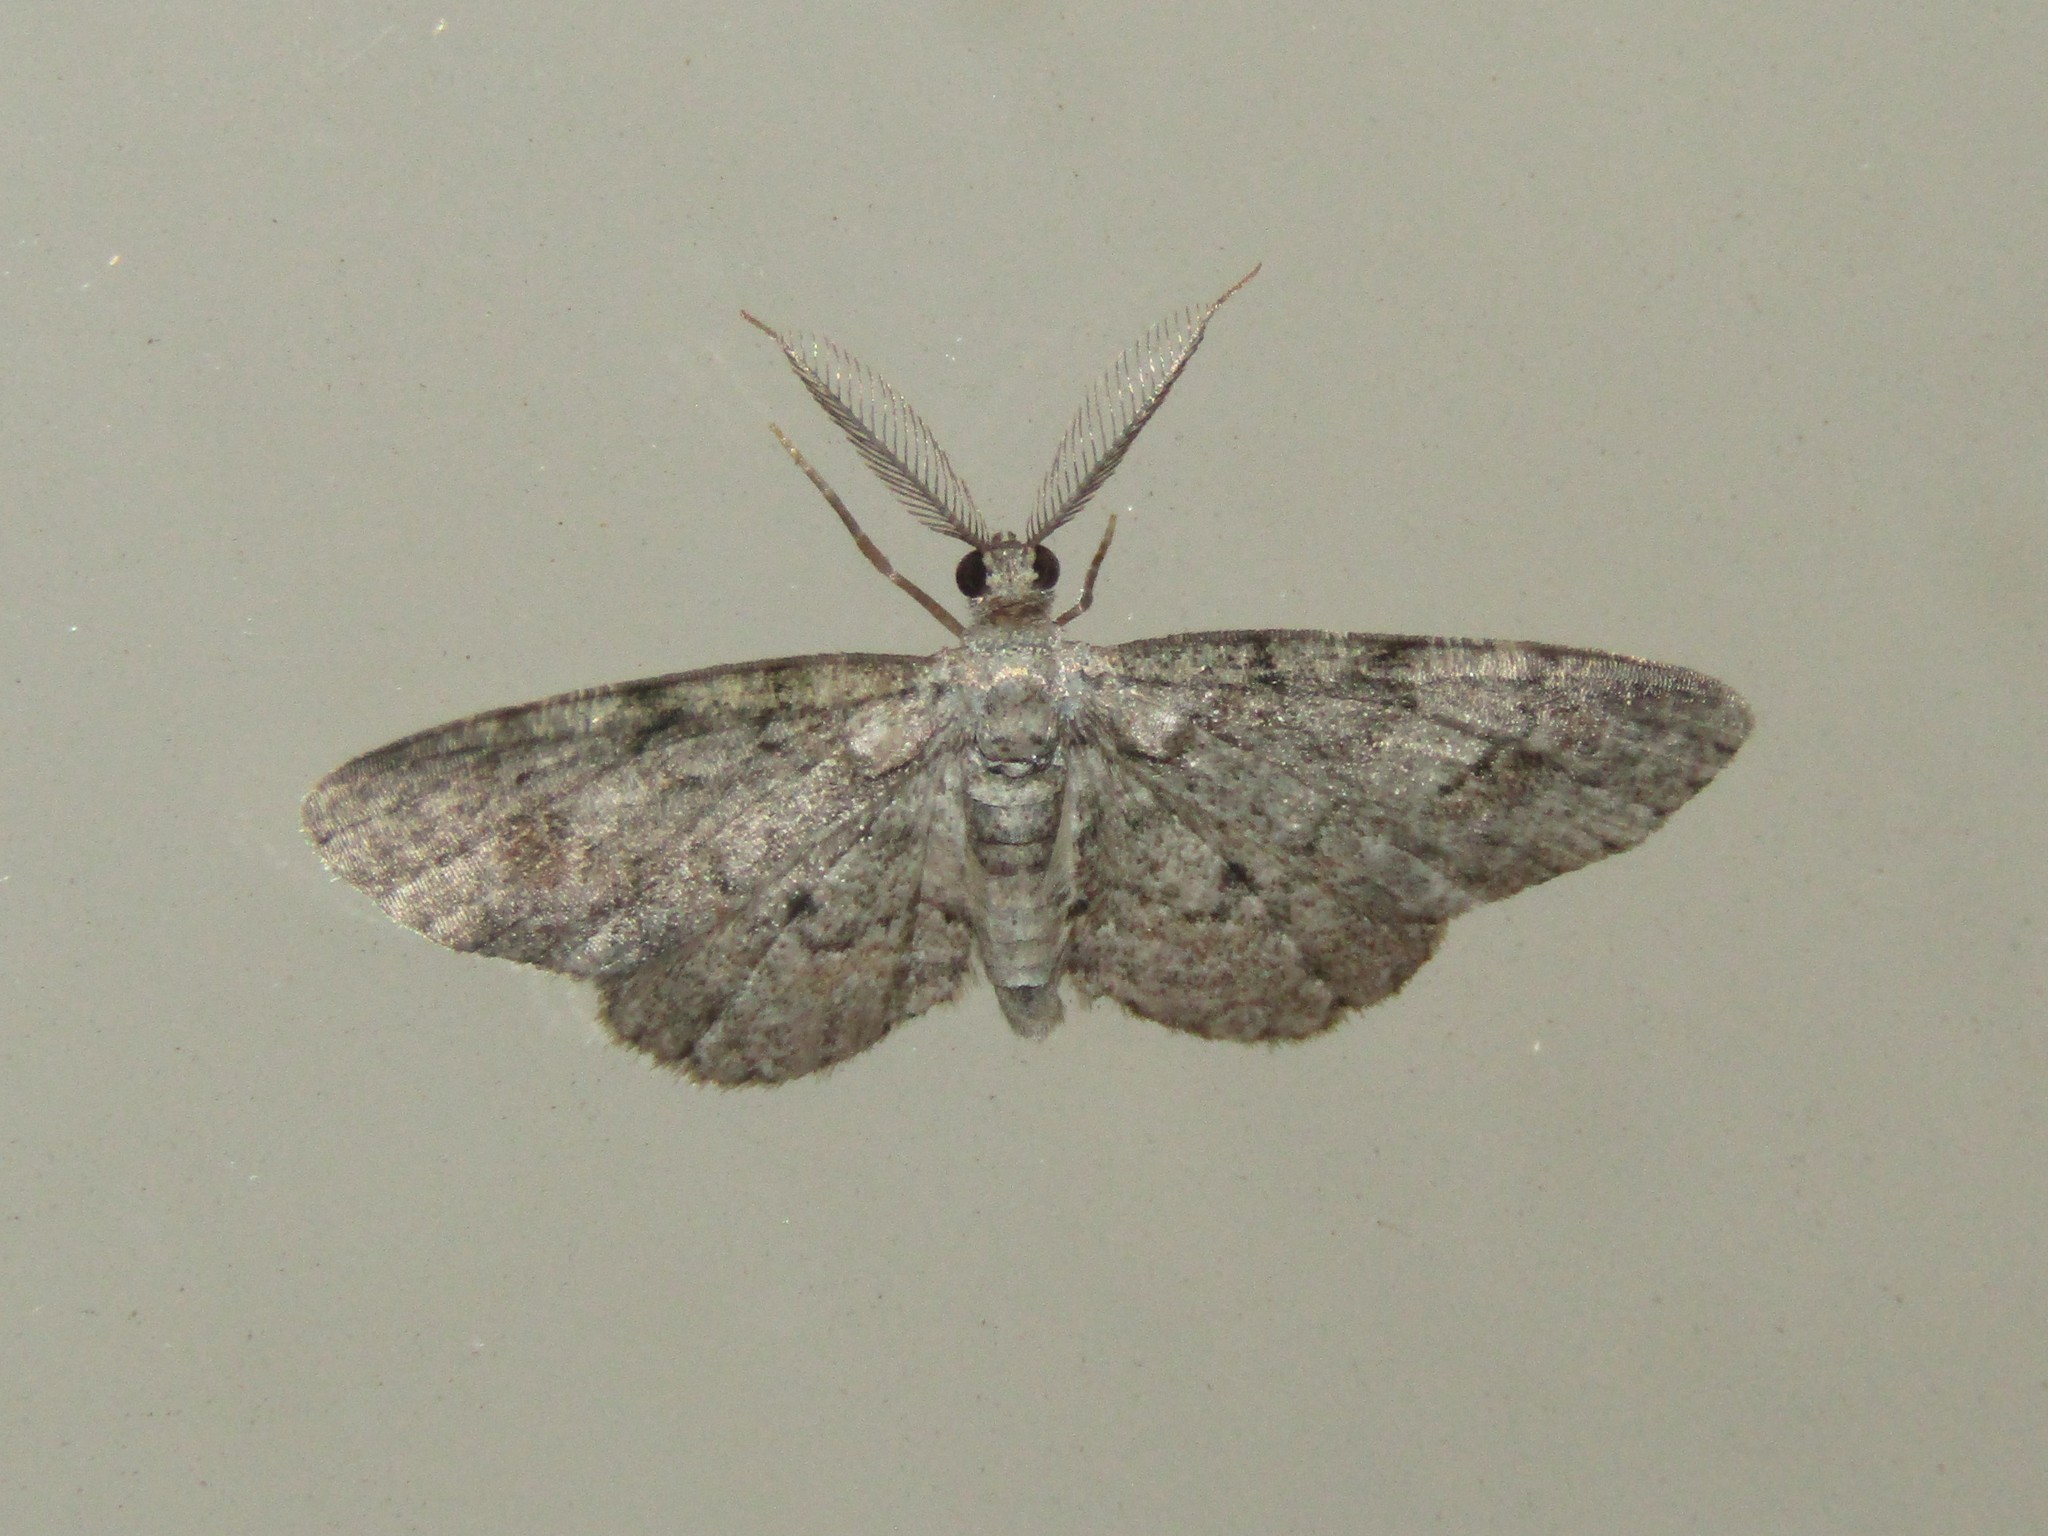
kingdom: Animalia
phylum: Arthropoda
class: Insecta
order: Lepidoptera
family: Geometridae
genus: Glenoides
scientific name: Glenoides texanaria
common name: Texas gray
